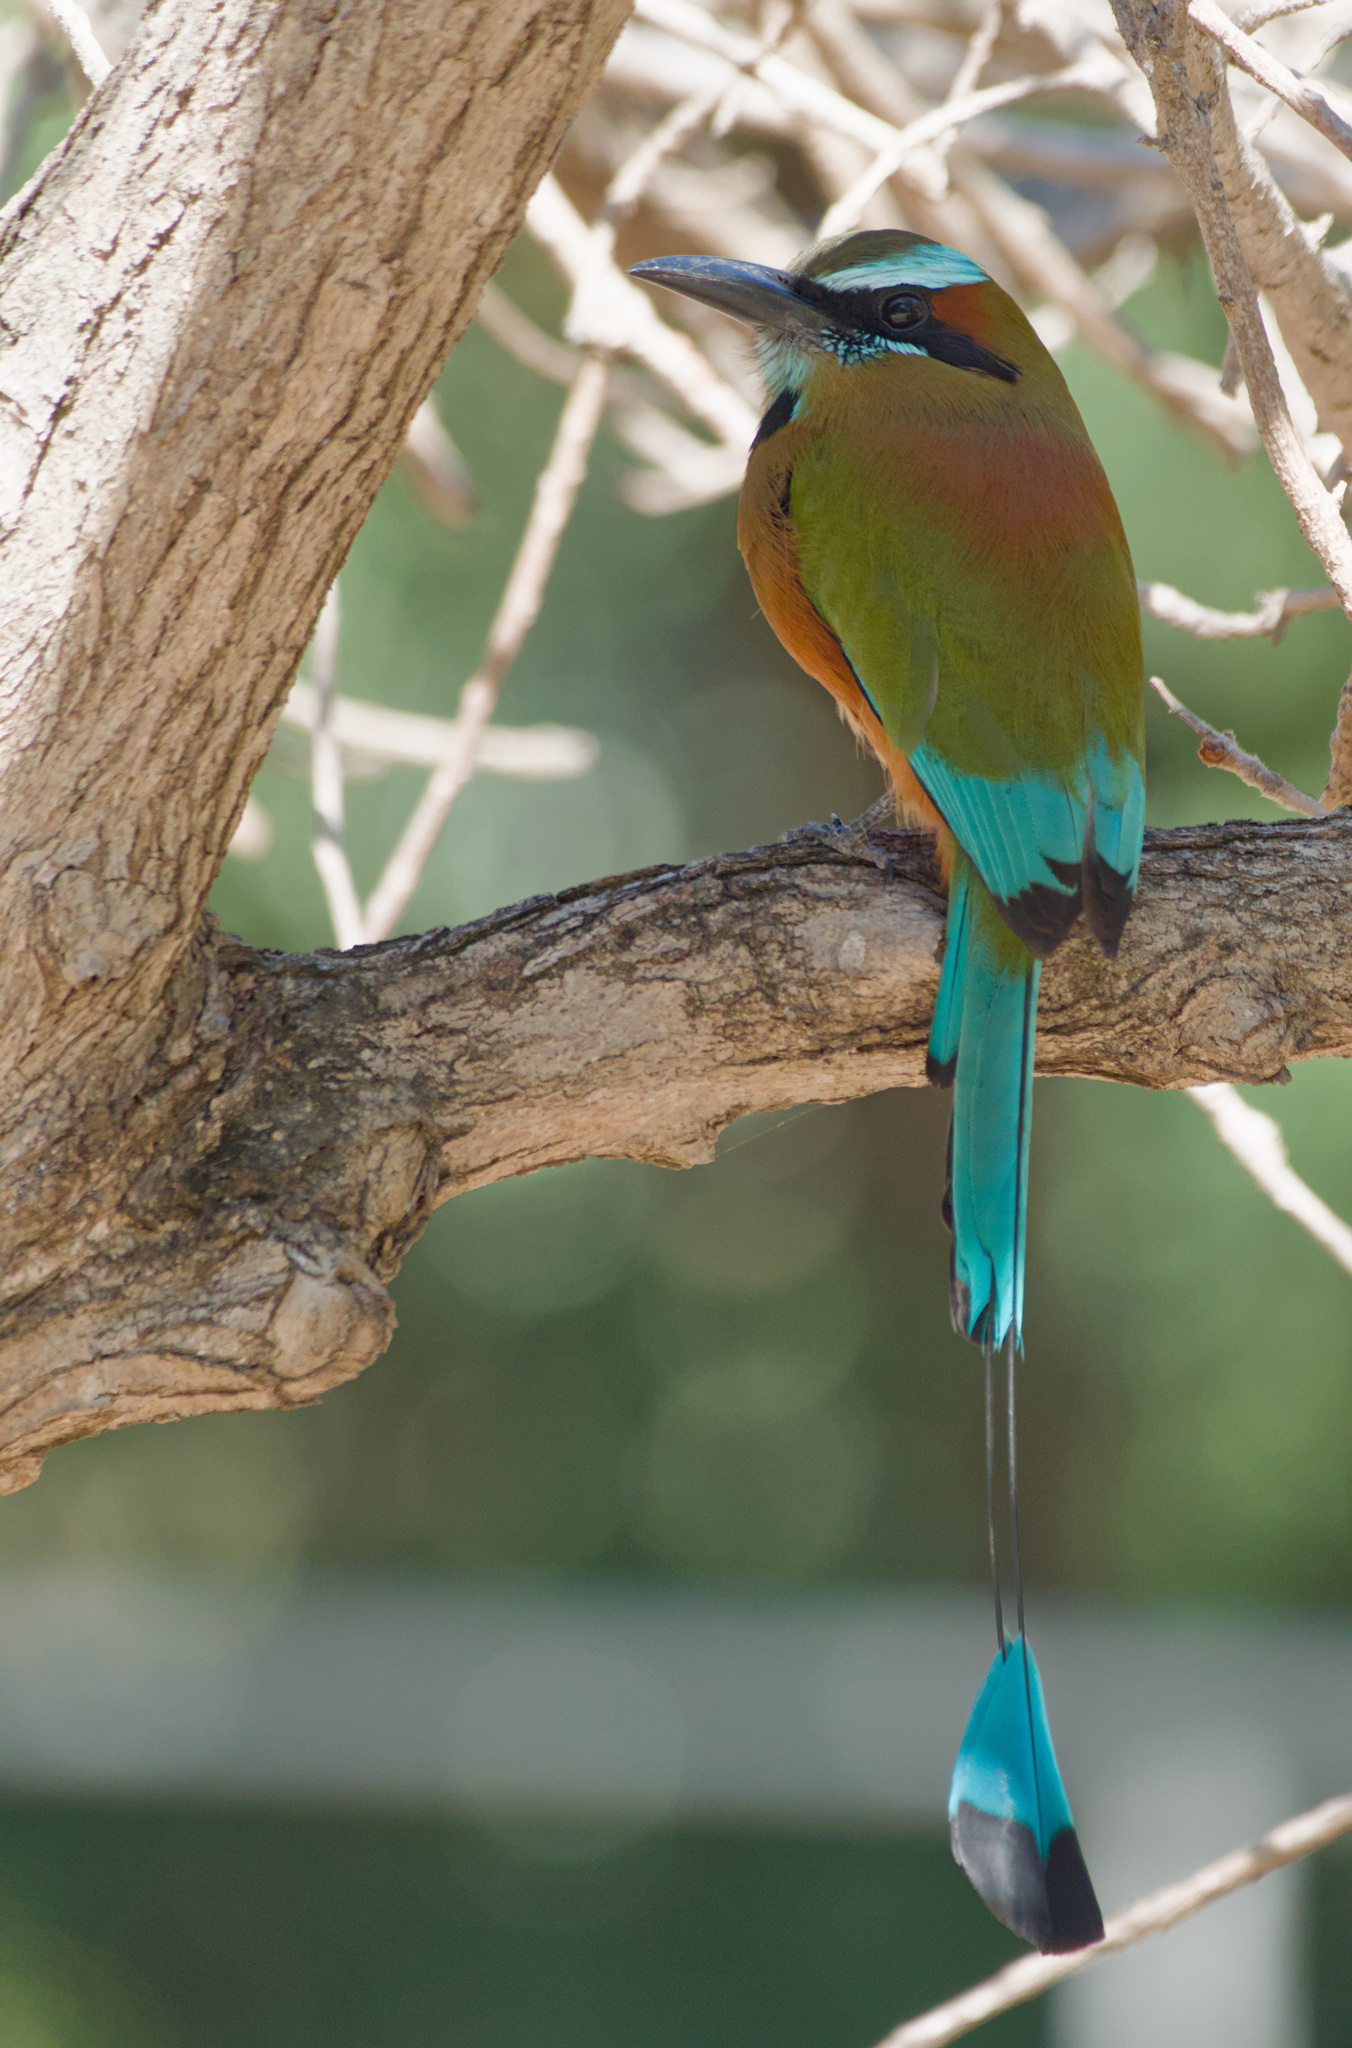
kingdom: Animalia
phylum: Chordata
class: Aves
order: Coraciiformes
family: Momotidae
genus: Eumomota
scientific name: Eumomota superciliosa
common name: Turquoise-browed motmot
